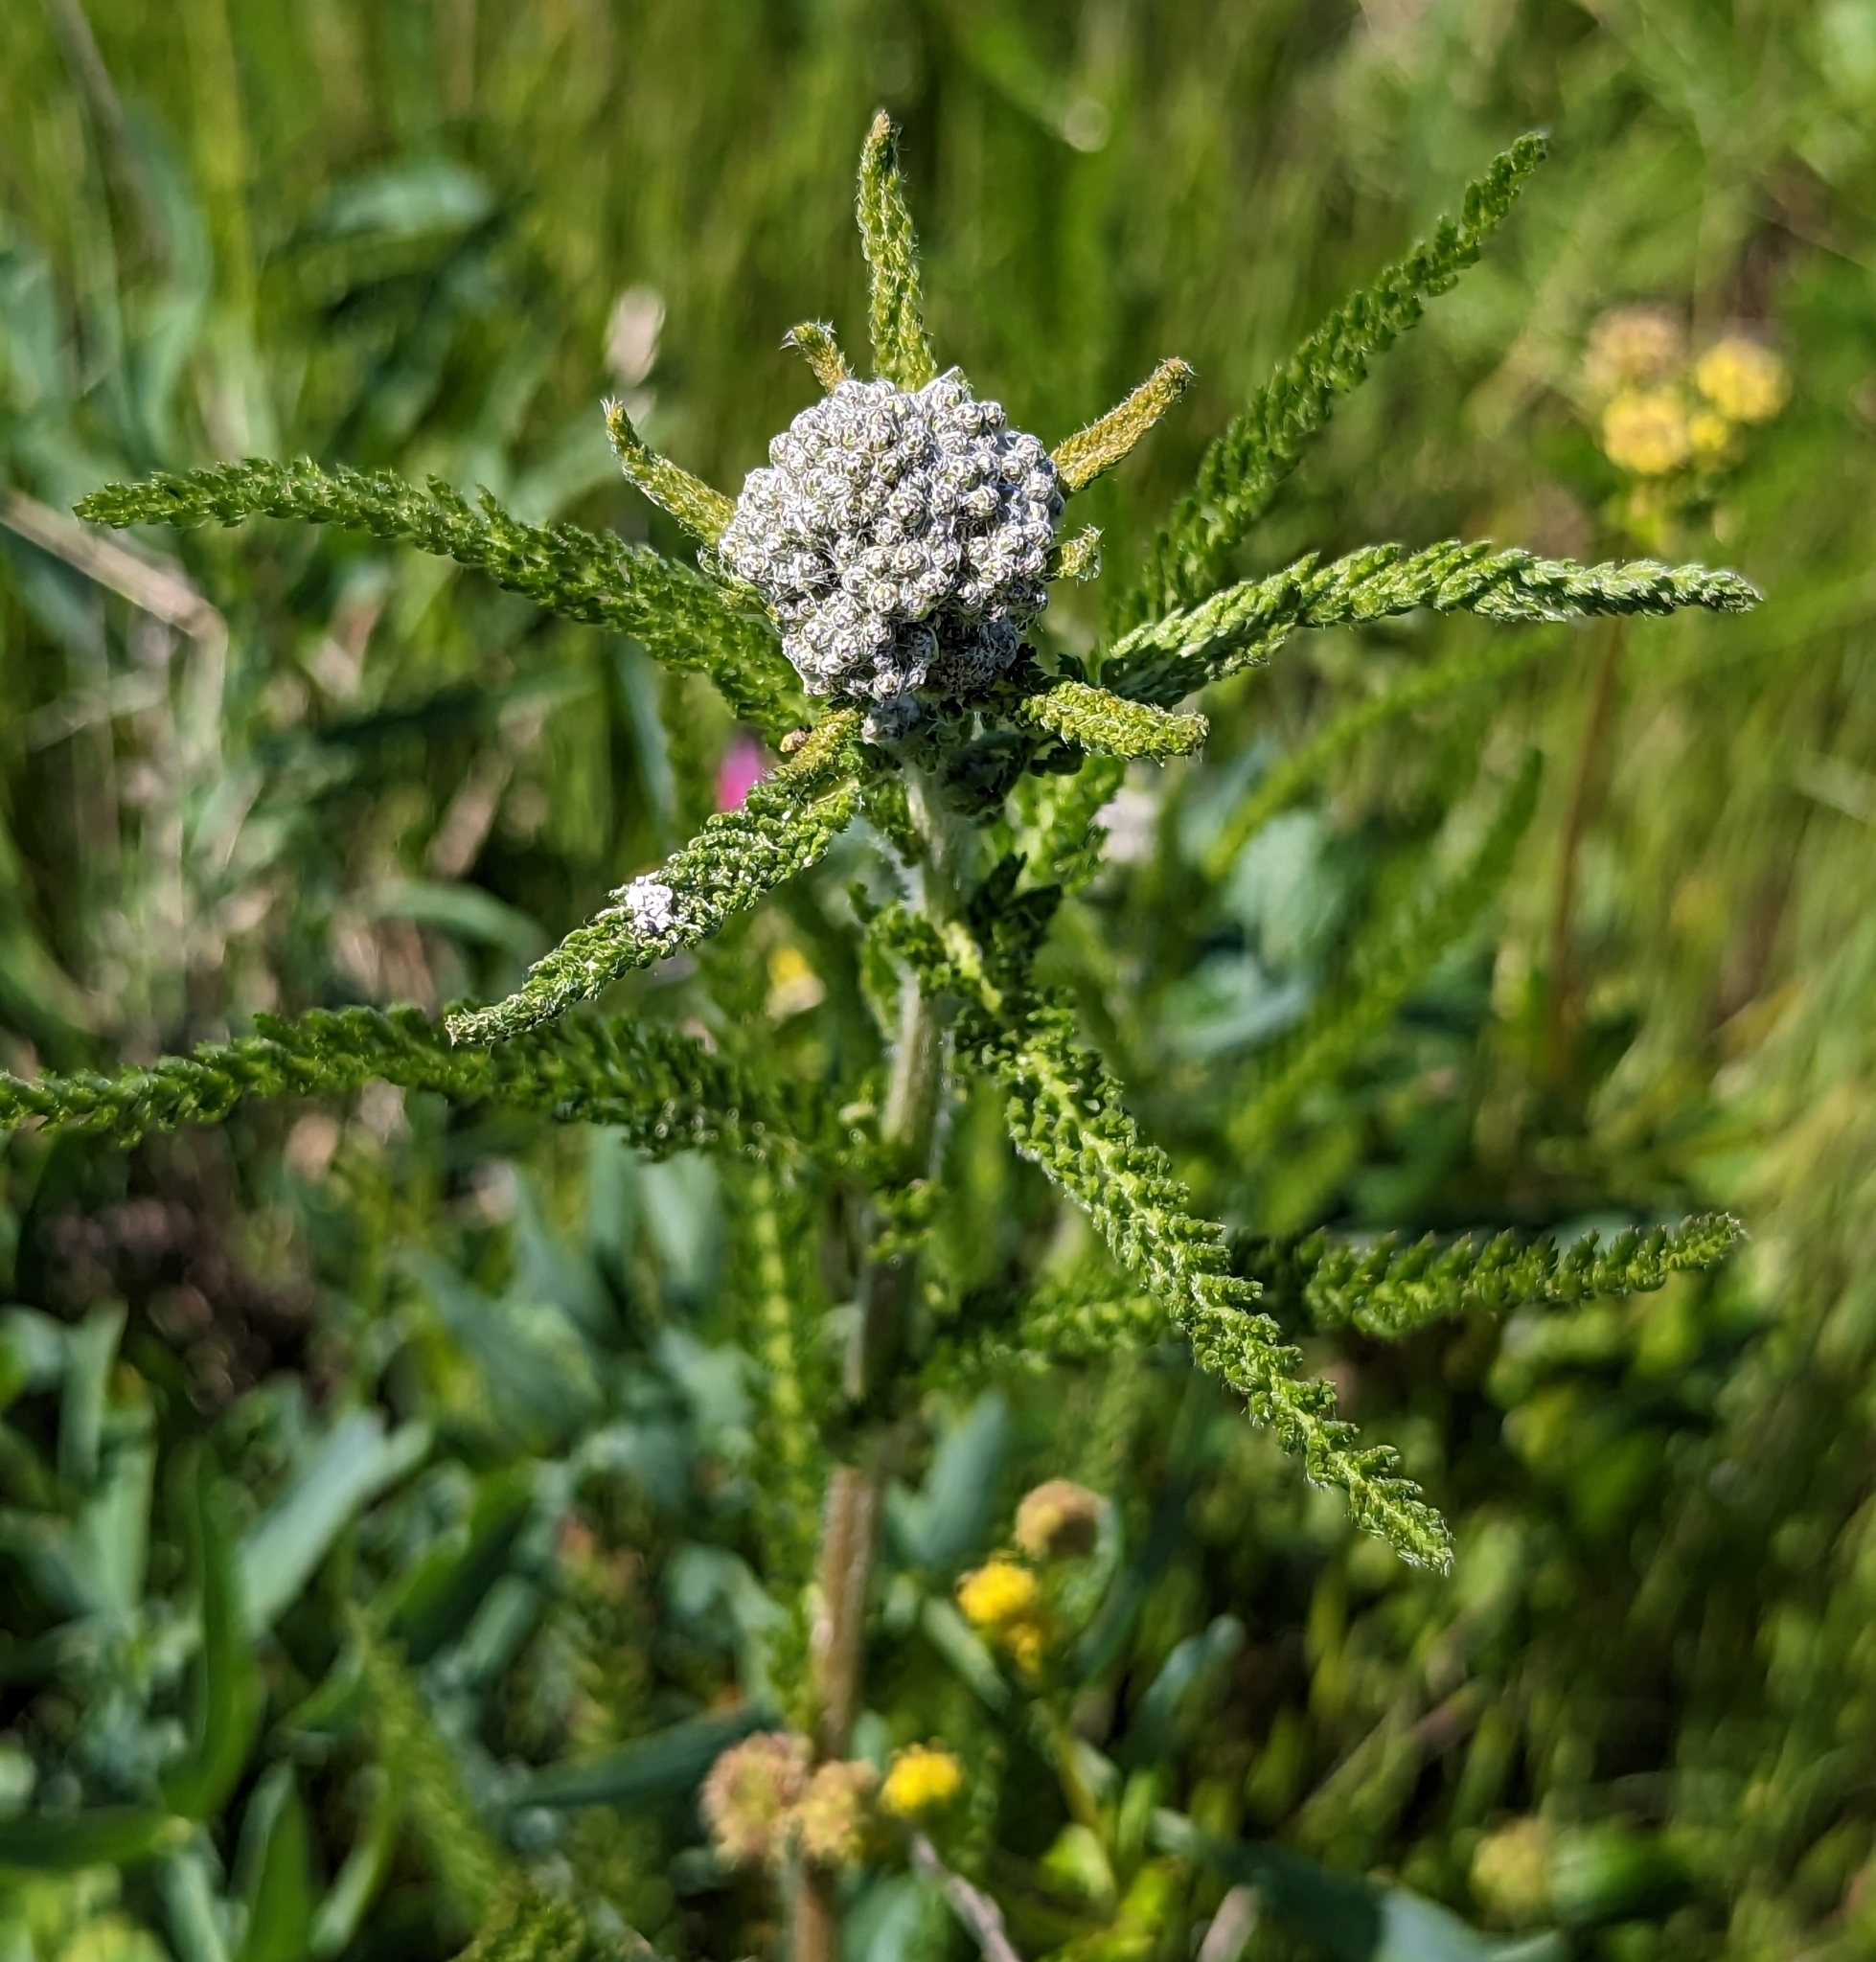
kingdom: Plantae
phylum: Tracheophyta
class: Magnoliopsida
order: Asterales
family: Asteraceae
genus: Achillea
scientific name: Achillea millefolium
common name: Yarrow
